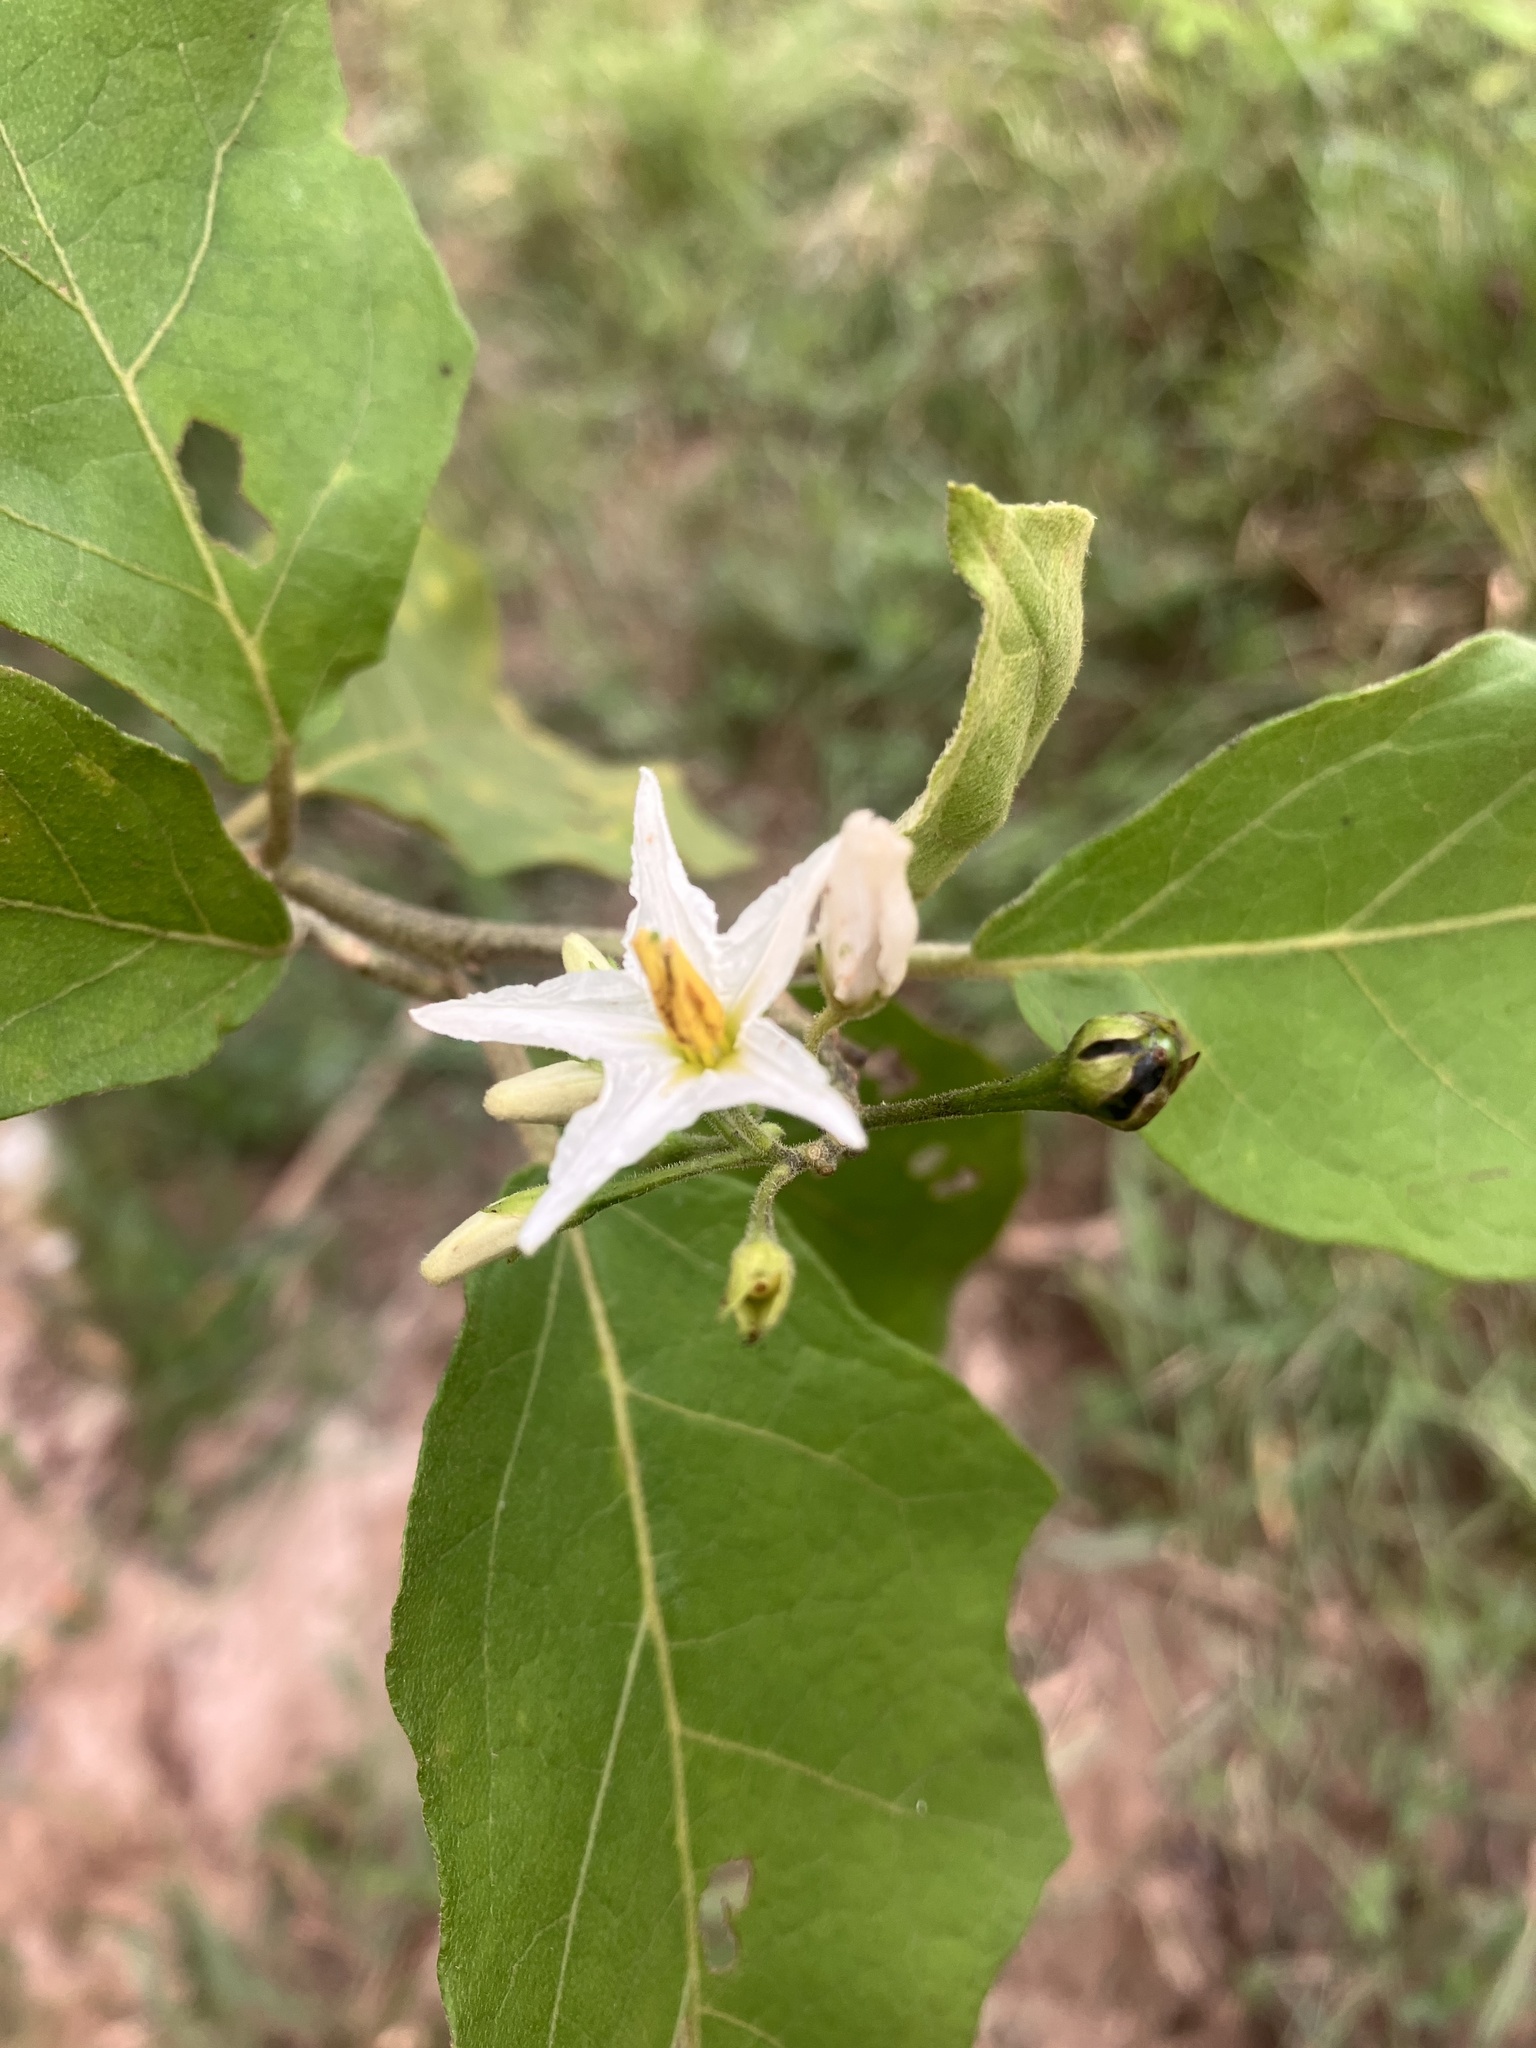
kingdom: Plantae
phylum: Tracheophyta
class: Magnoliopsida
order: Solanales
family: Solanaceae
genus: Solanum
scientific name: Solanum torvum
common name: Turkey berry
